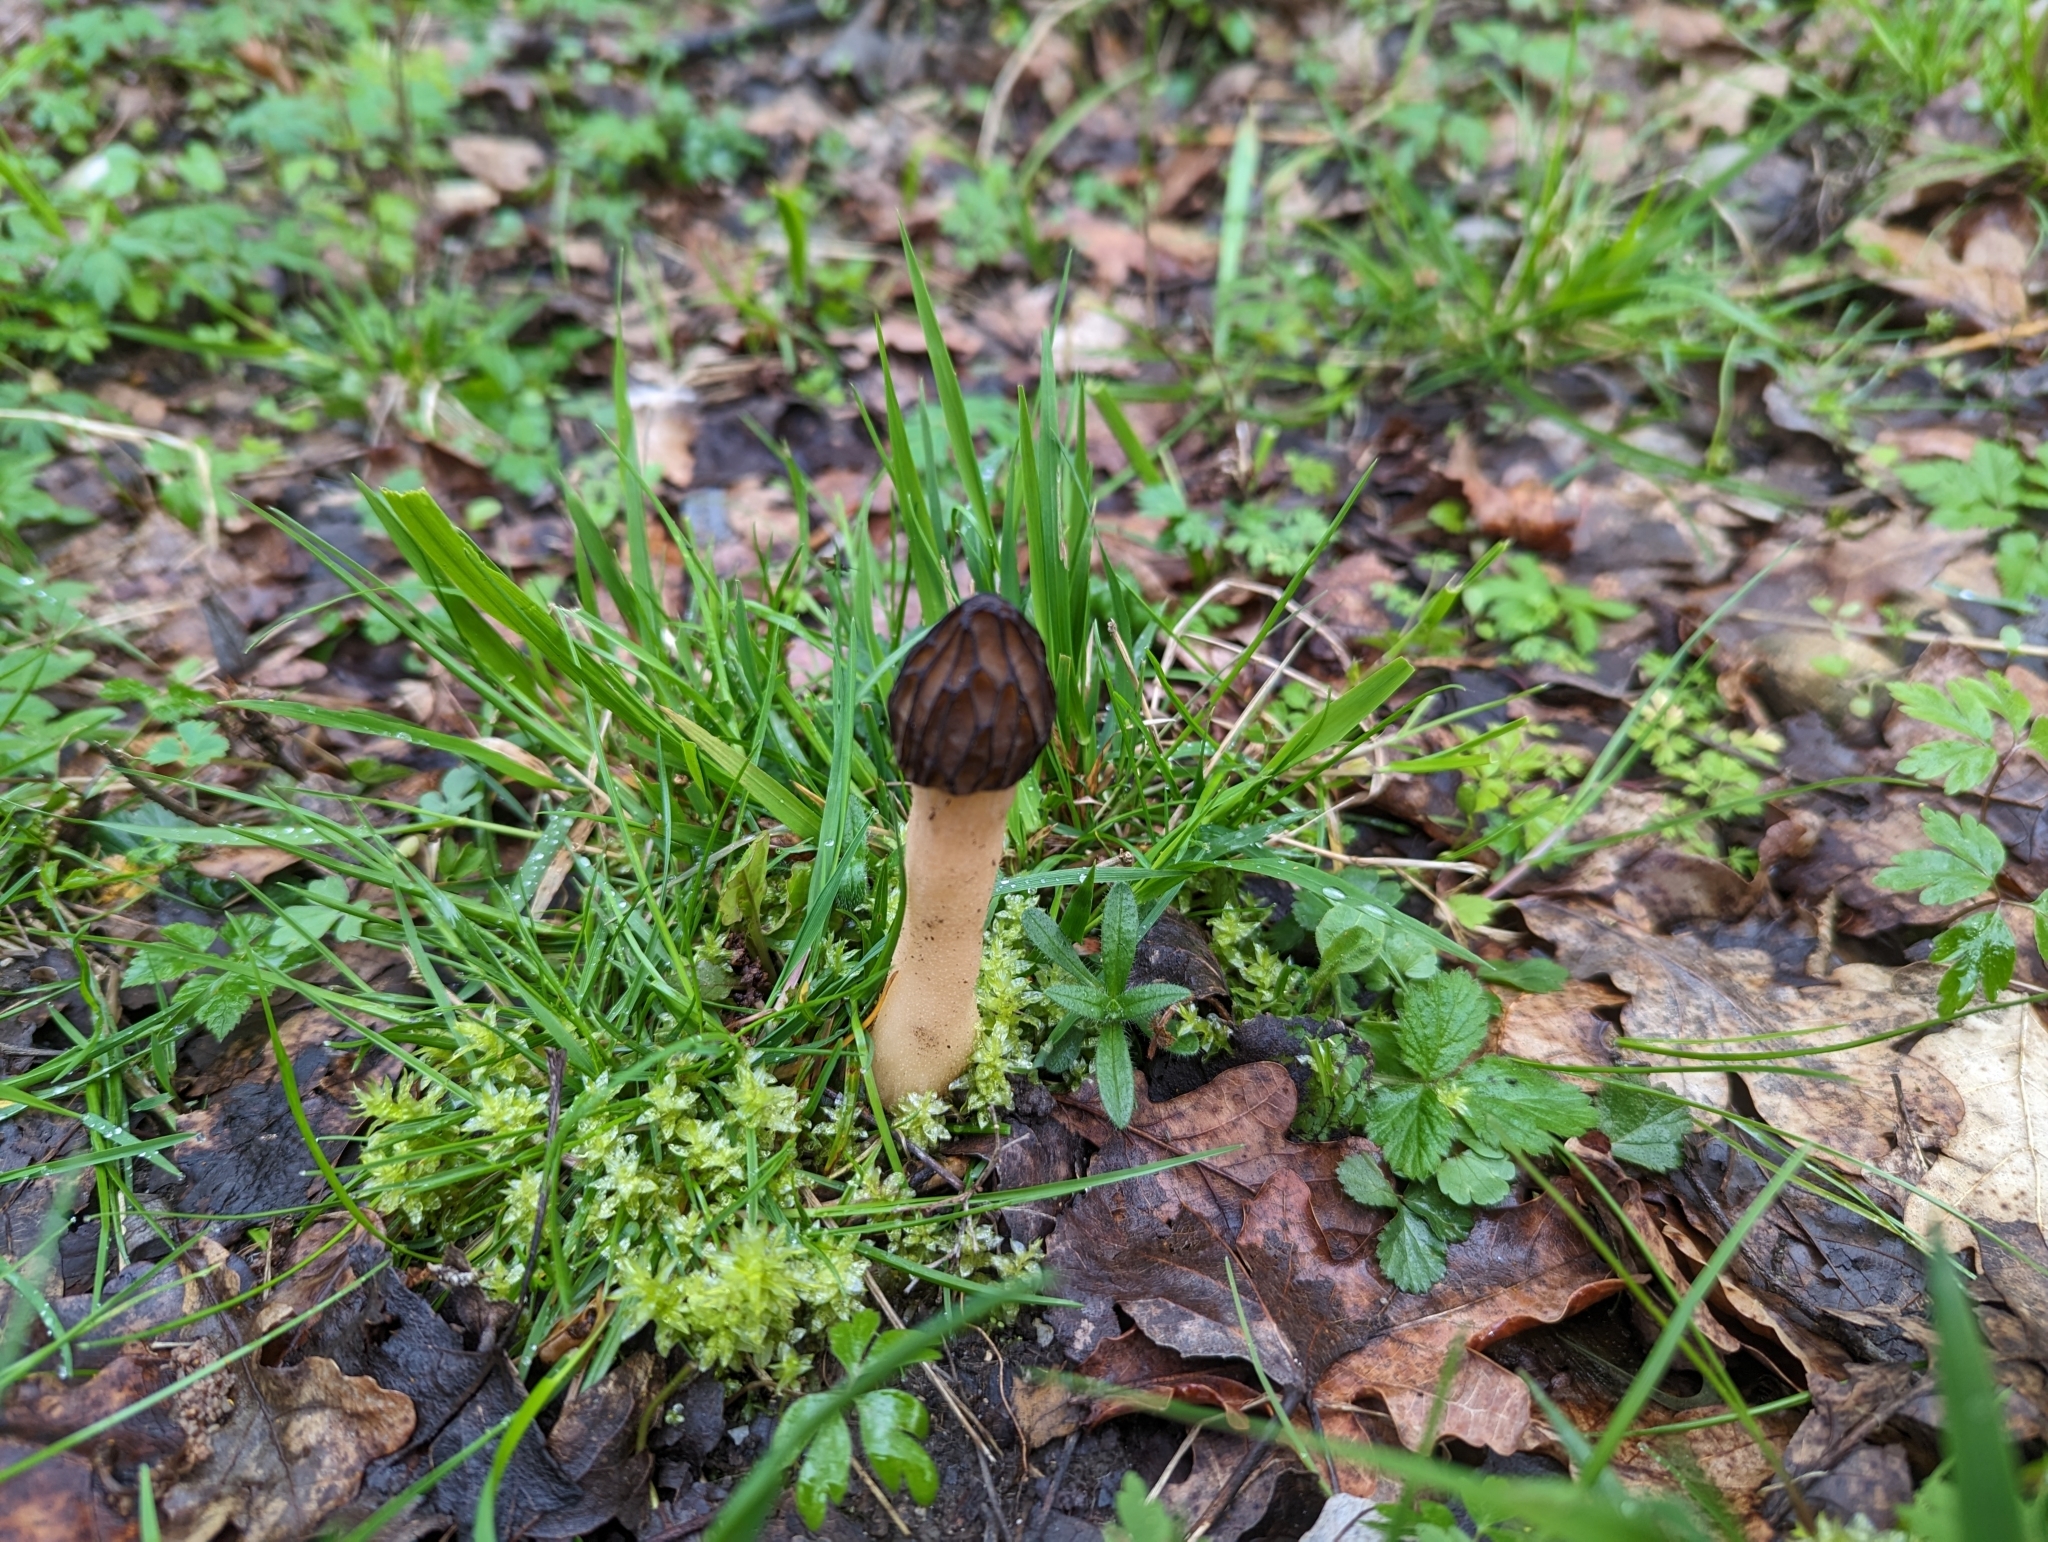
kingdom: Fungi
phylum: Ascomycota
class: Pezizomycetes
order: Pezizales
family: Morchellaceae
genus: Morchella
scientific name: Morchella semilibera
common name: Semifree morel
